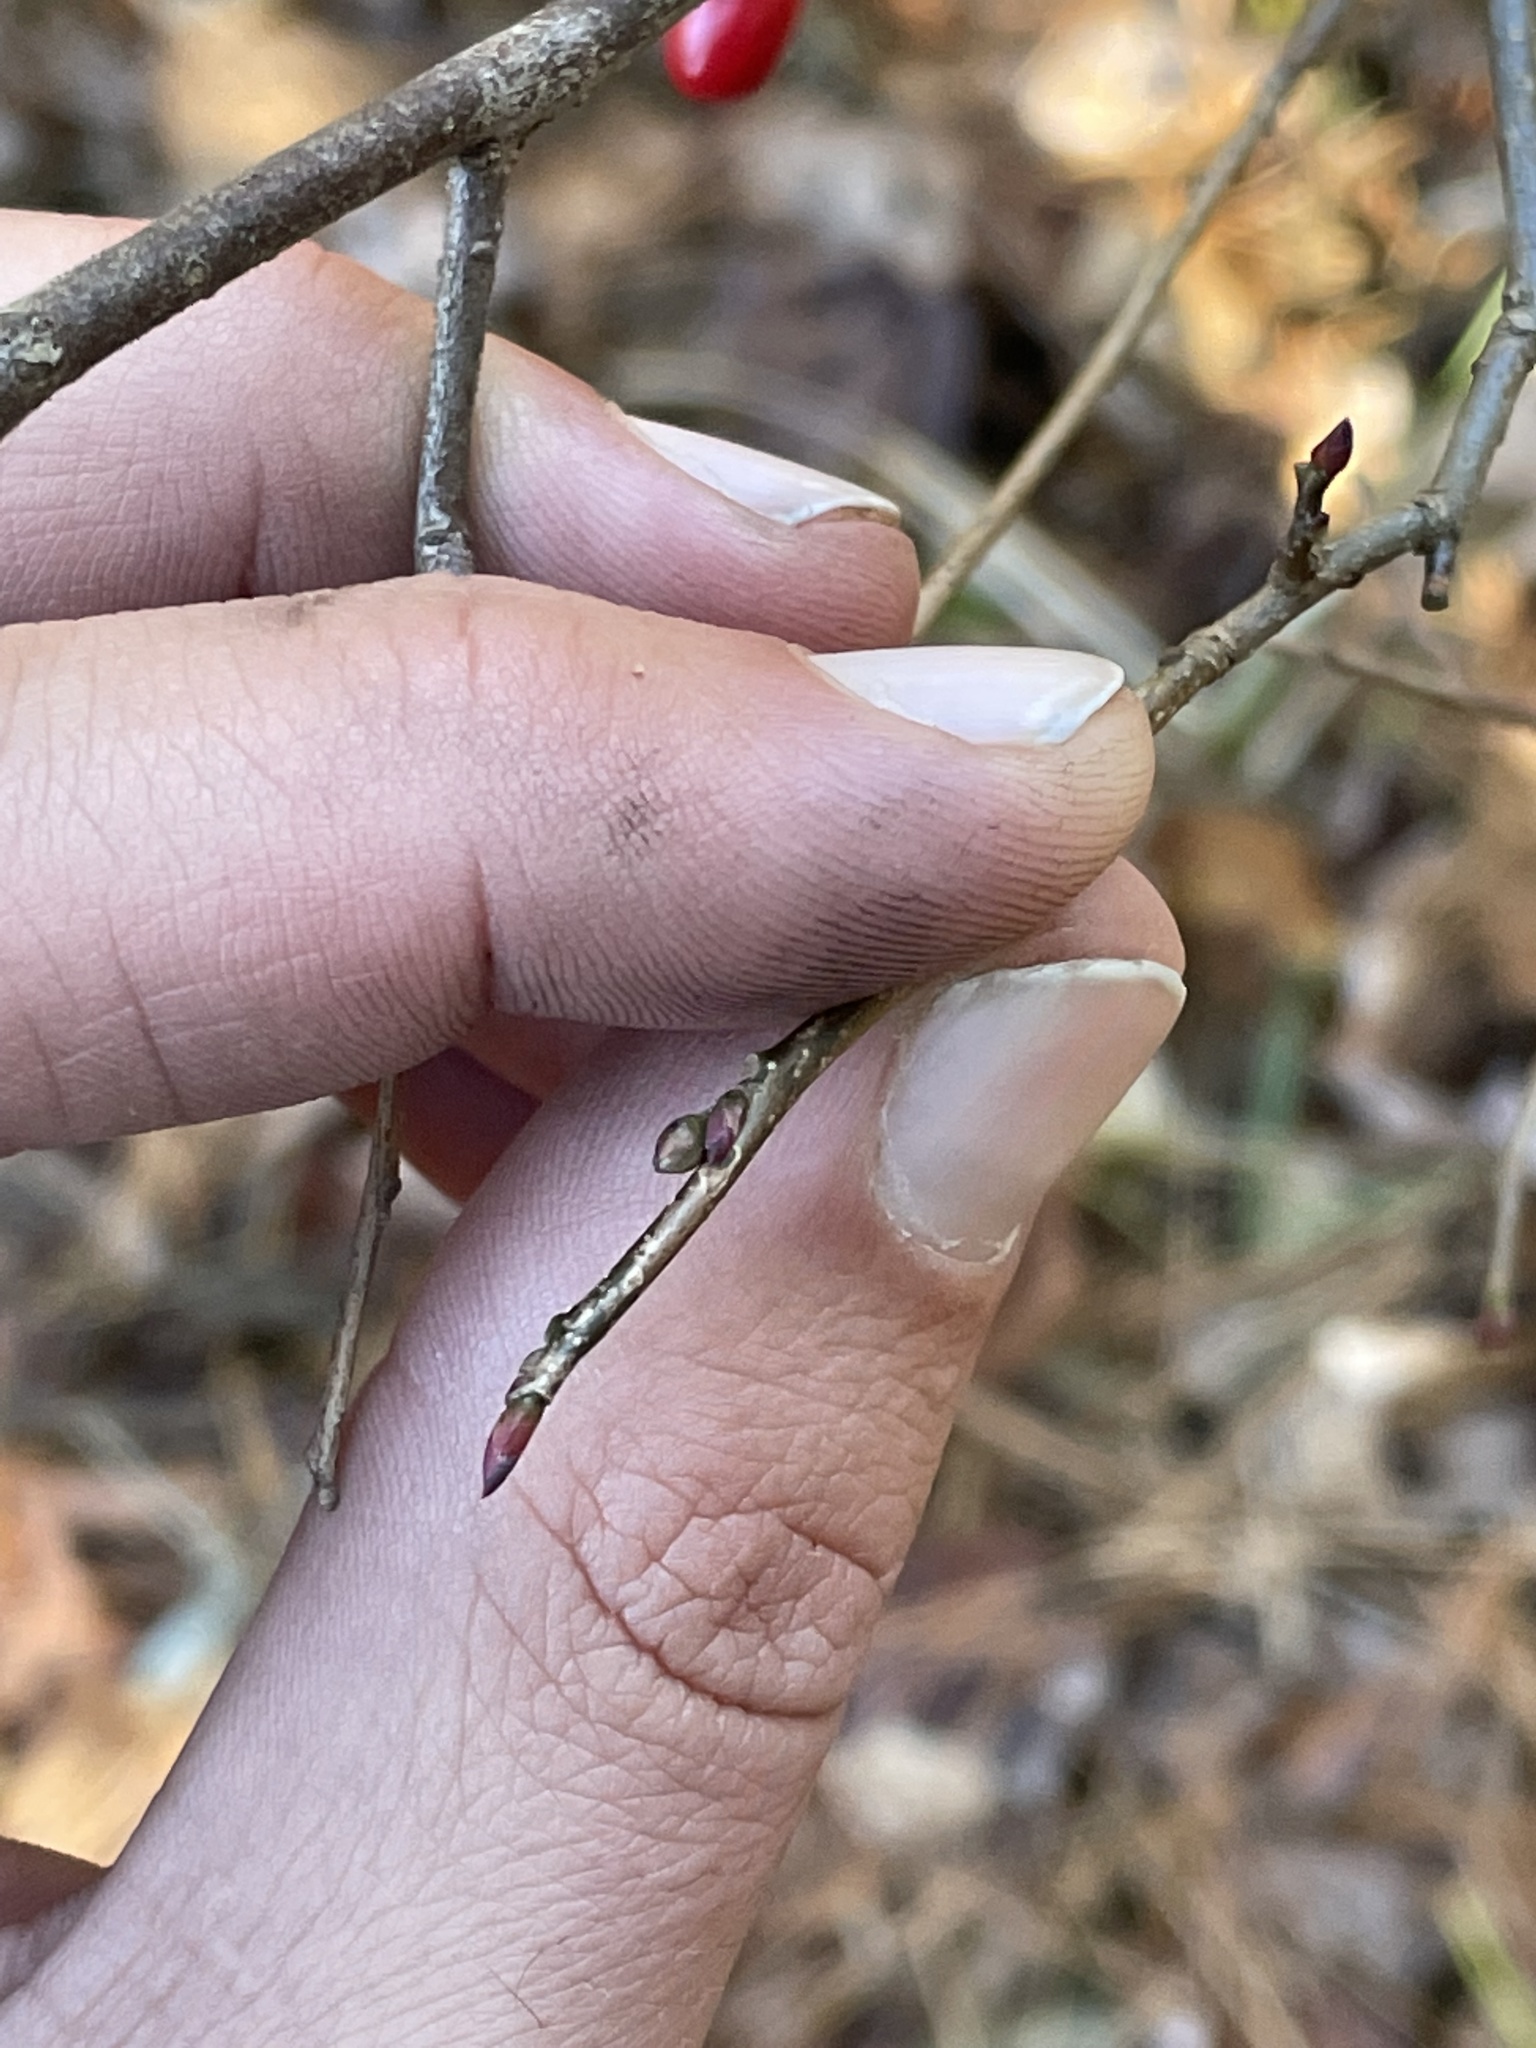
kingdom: Plantae
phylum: Tracheophyta
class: Magnoliopsida
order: Laurales
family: Lauraceae
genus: Lindera
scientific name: Lindera benzoin
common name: Spicebush
